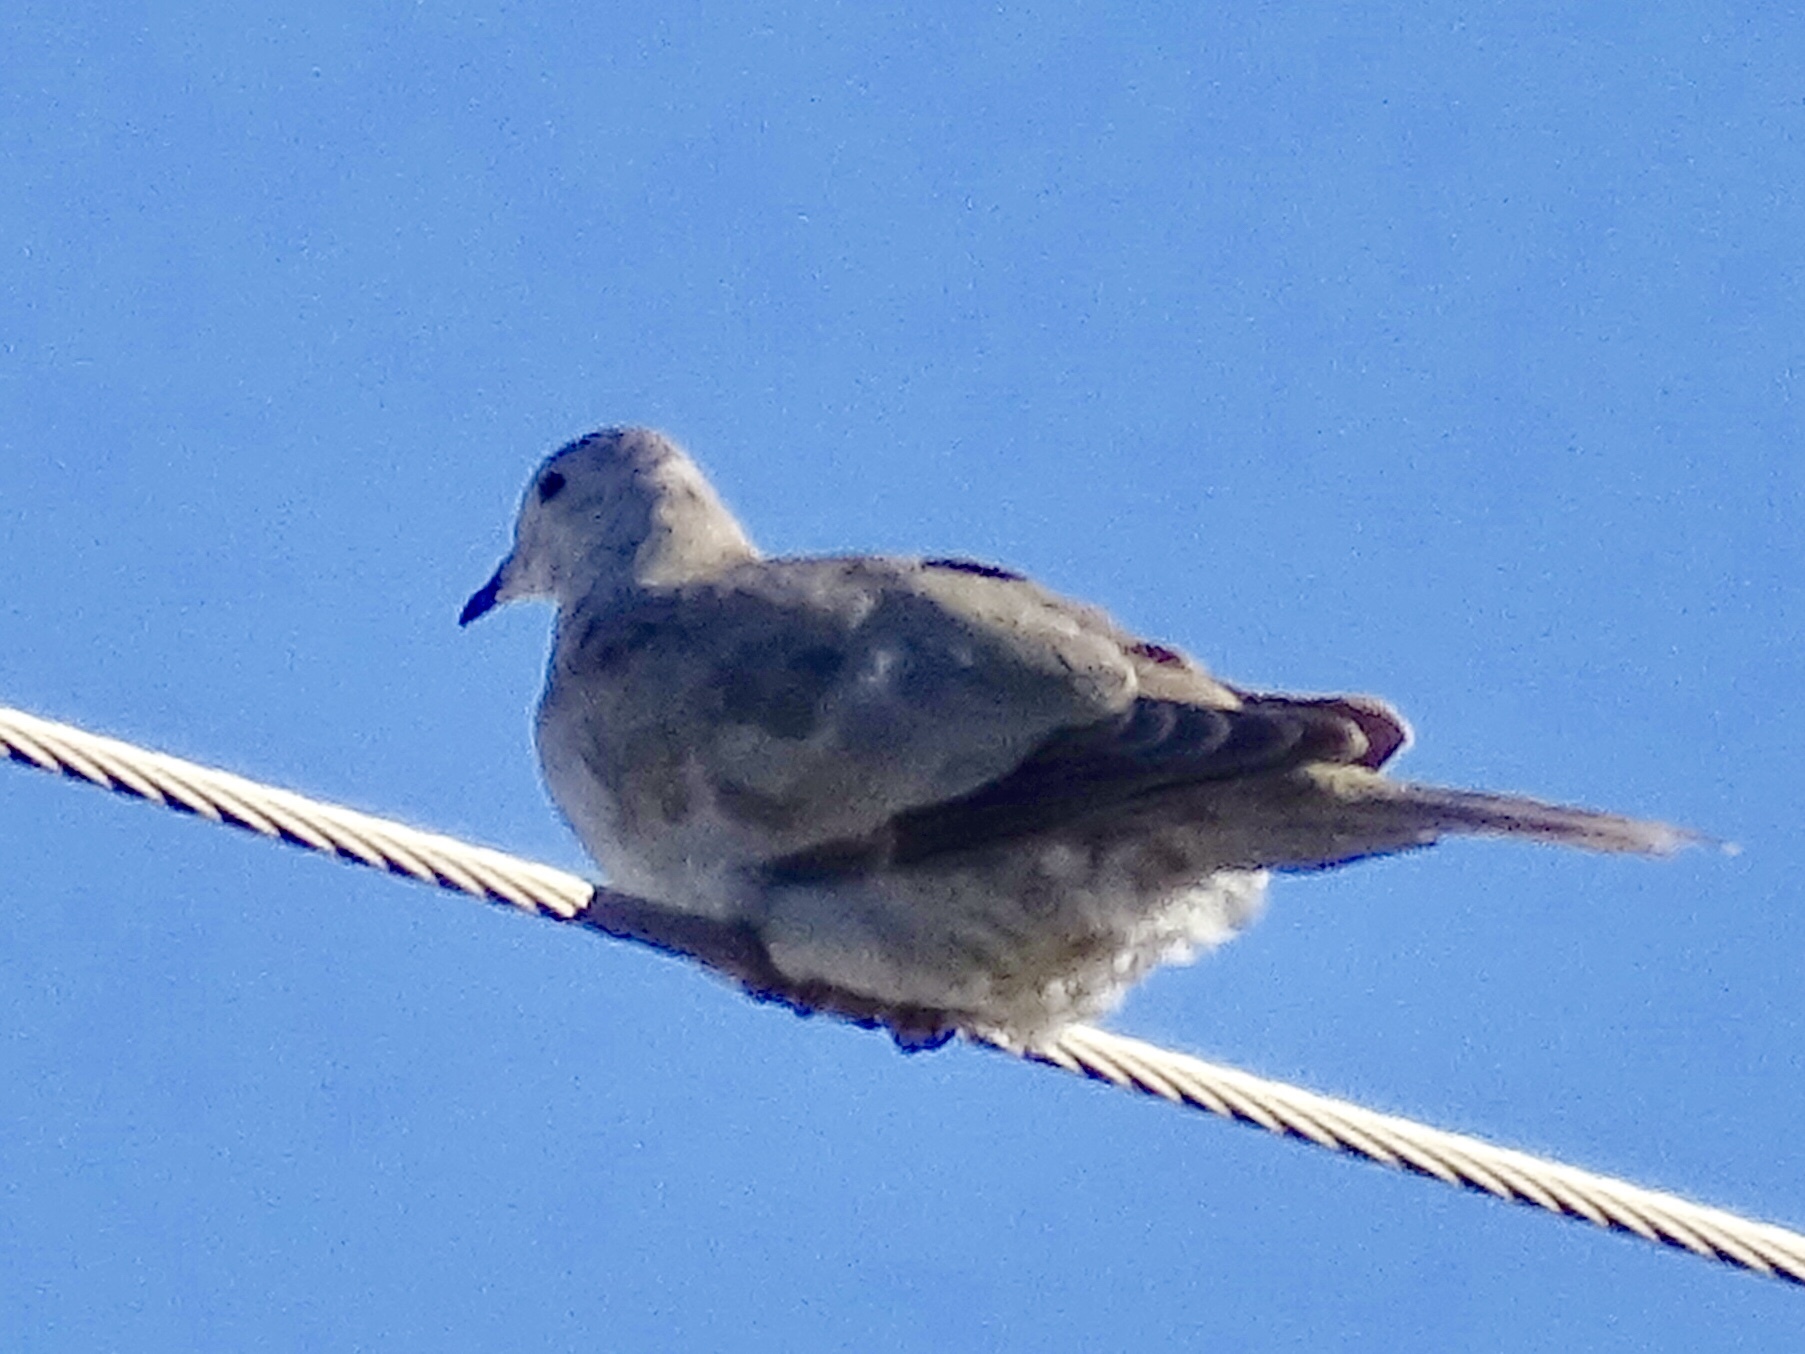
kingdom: Animalia
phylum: Chordata
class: Aves
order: Columbiformes
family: Columbidae
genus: Streptopelia
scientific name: Streptopelia decaocto
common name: Eurasian collared dove
